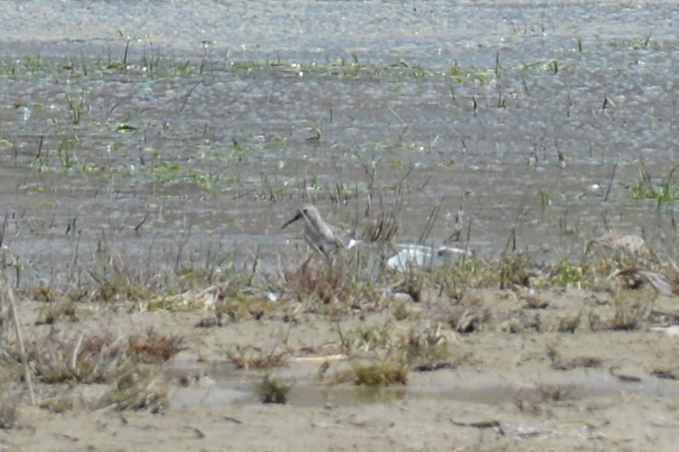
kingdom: Animalia
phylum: Chordata
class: Aves
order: Charadriiformes
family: Scolopacidae
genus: Calidris
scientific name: Calidris alpina
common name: Dunlin
